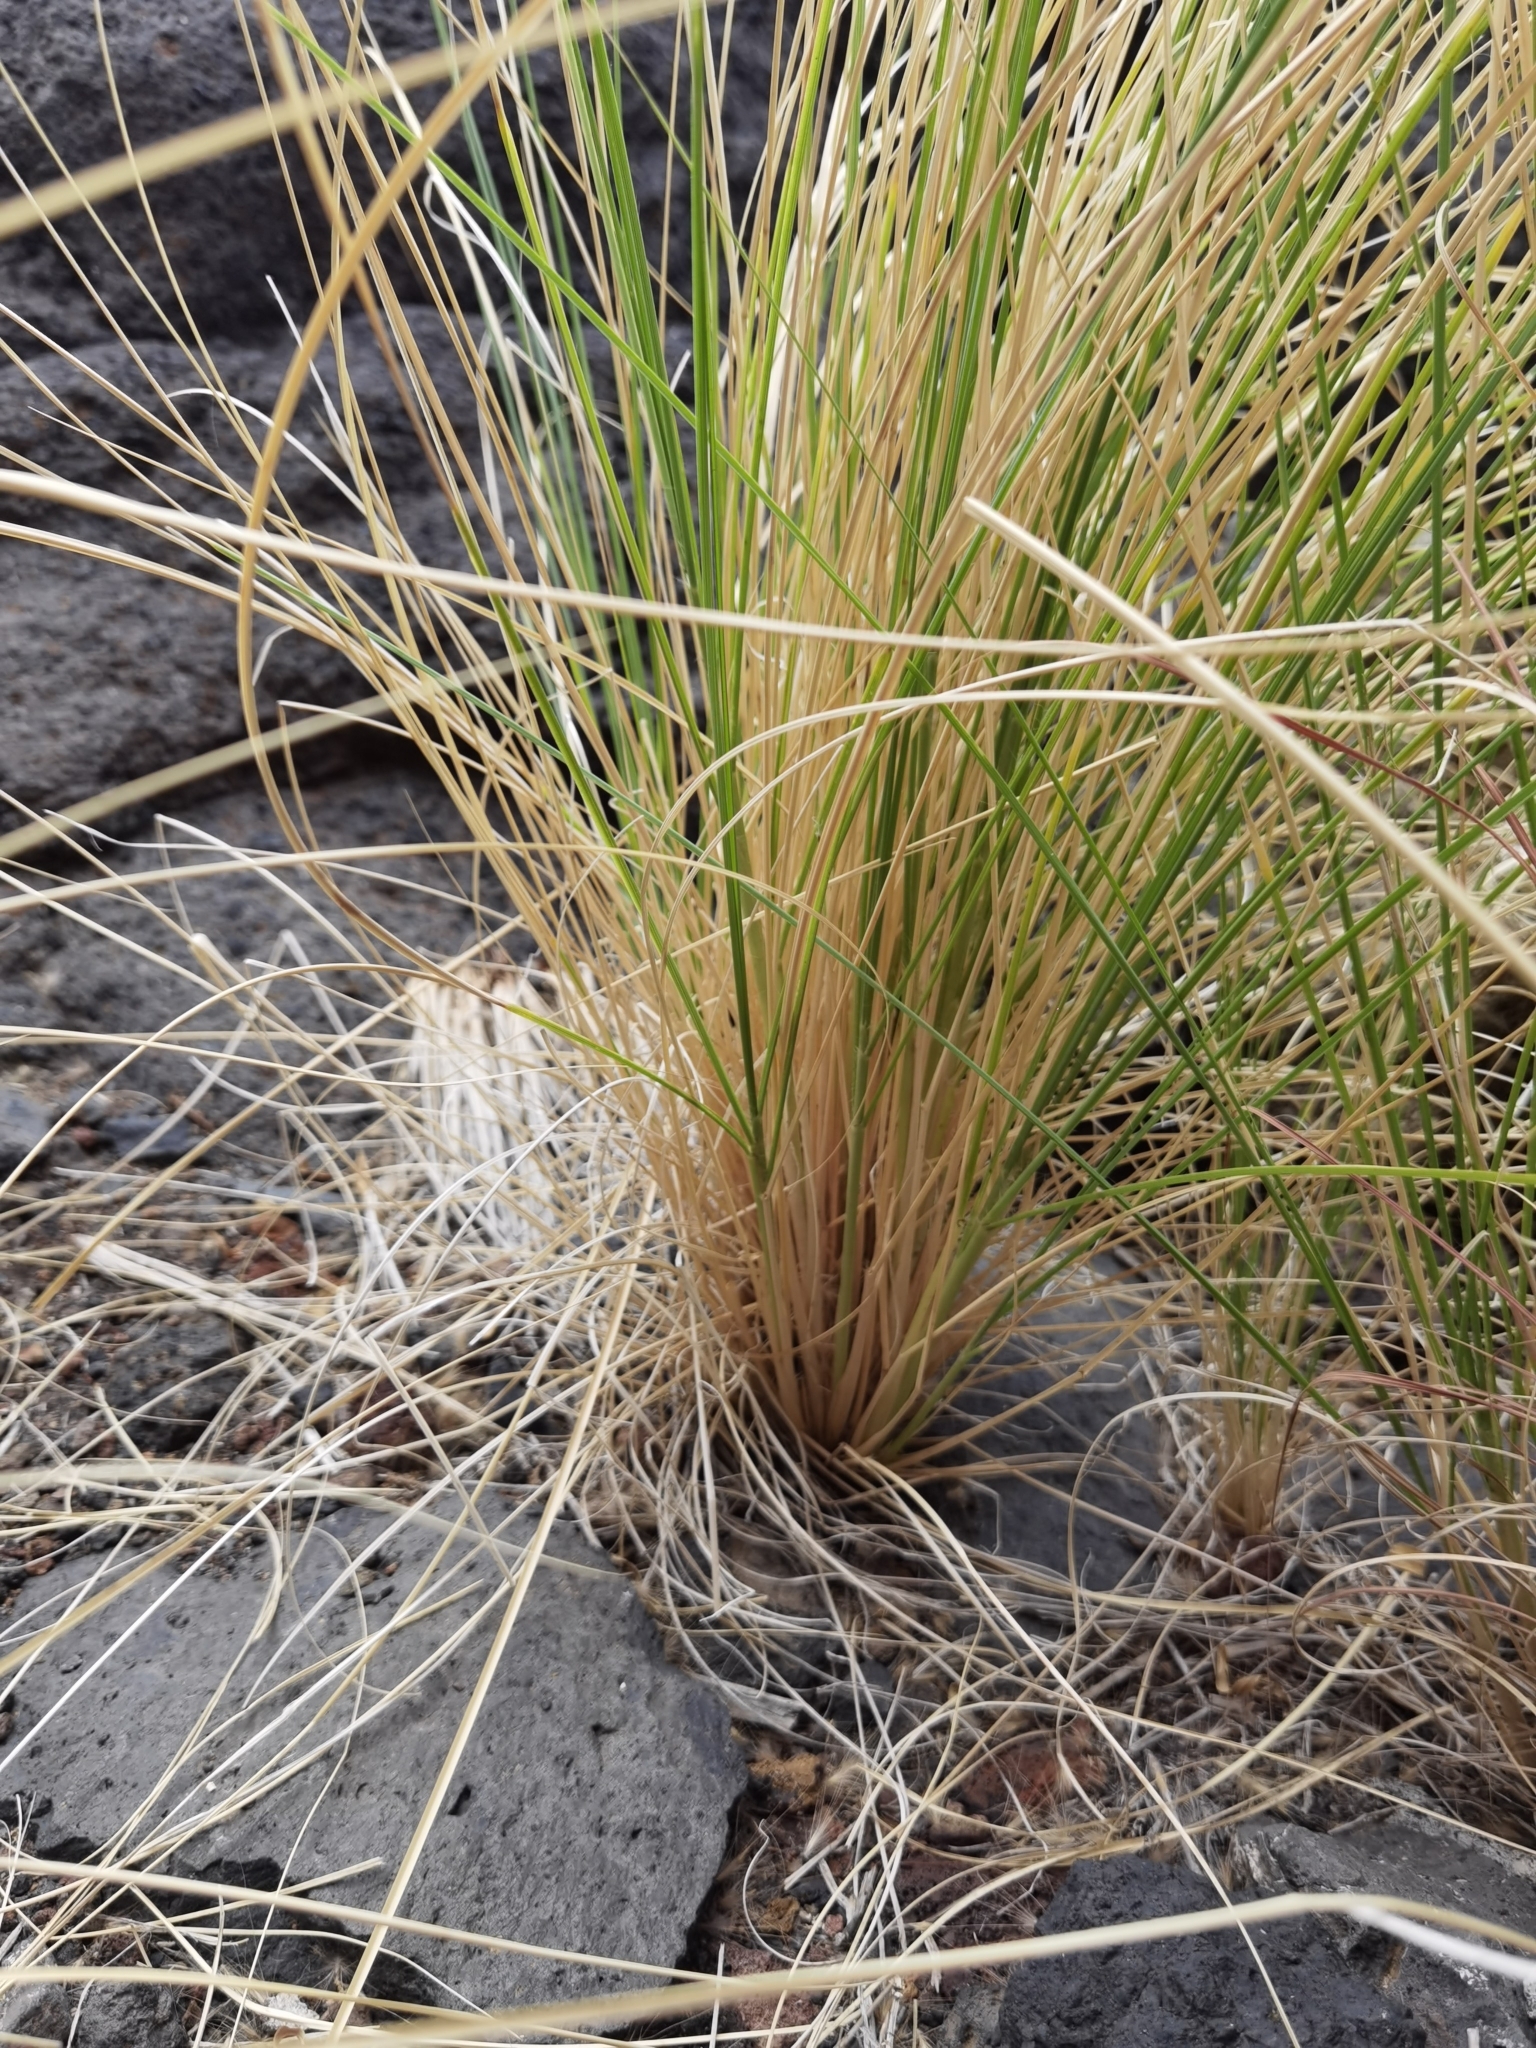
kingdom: Plantae
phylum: Tracheophyta
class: Liliopsida
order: Poales
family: Poaceae
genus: Cenchrus
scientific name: Cenchrus setaceus
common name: Crimson fountaingrass
